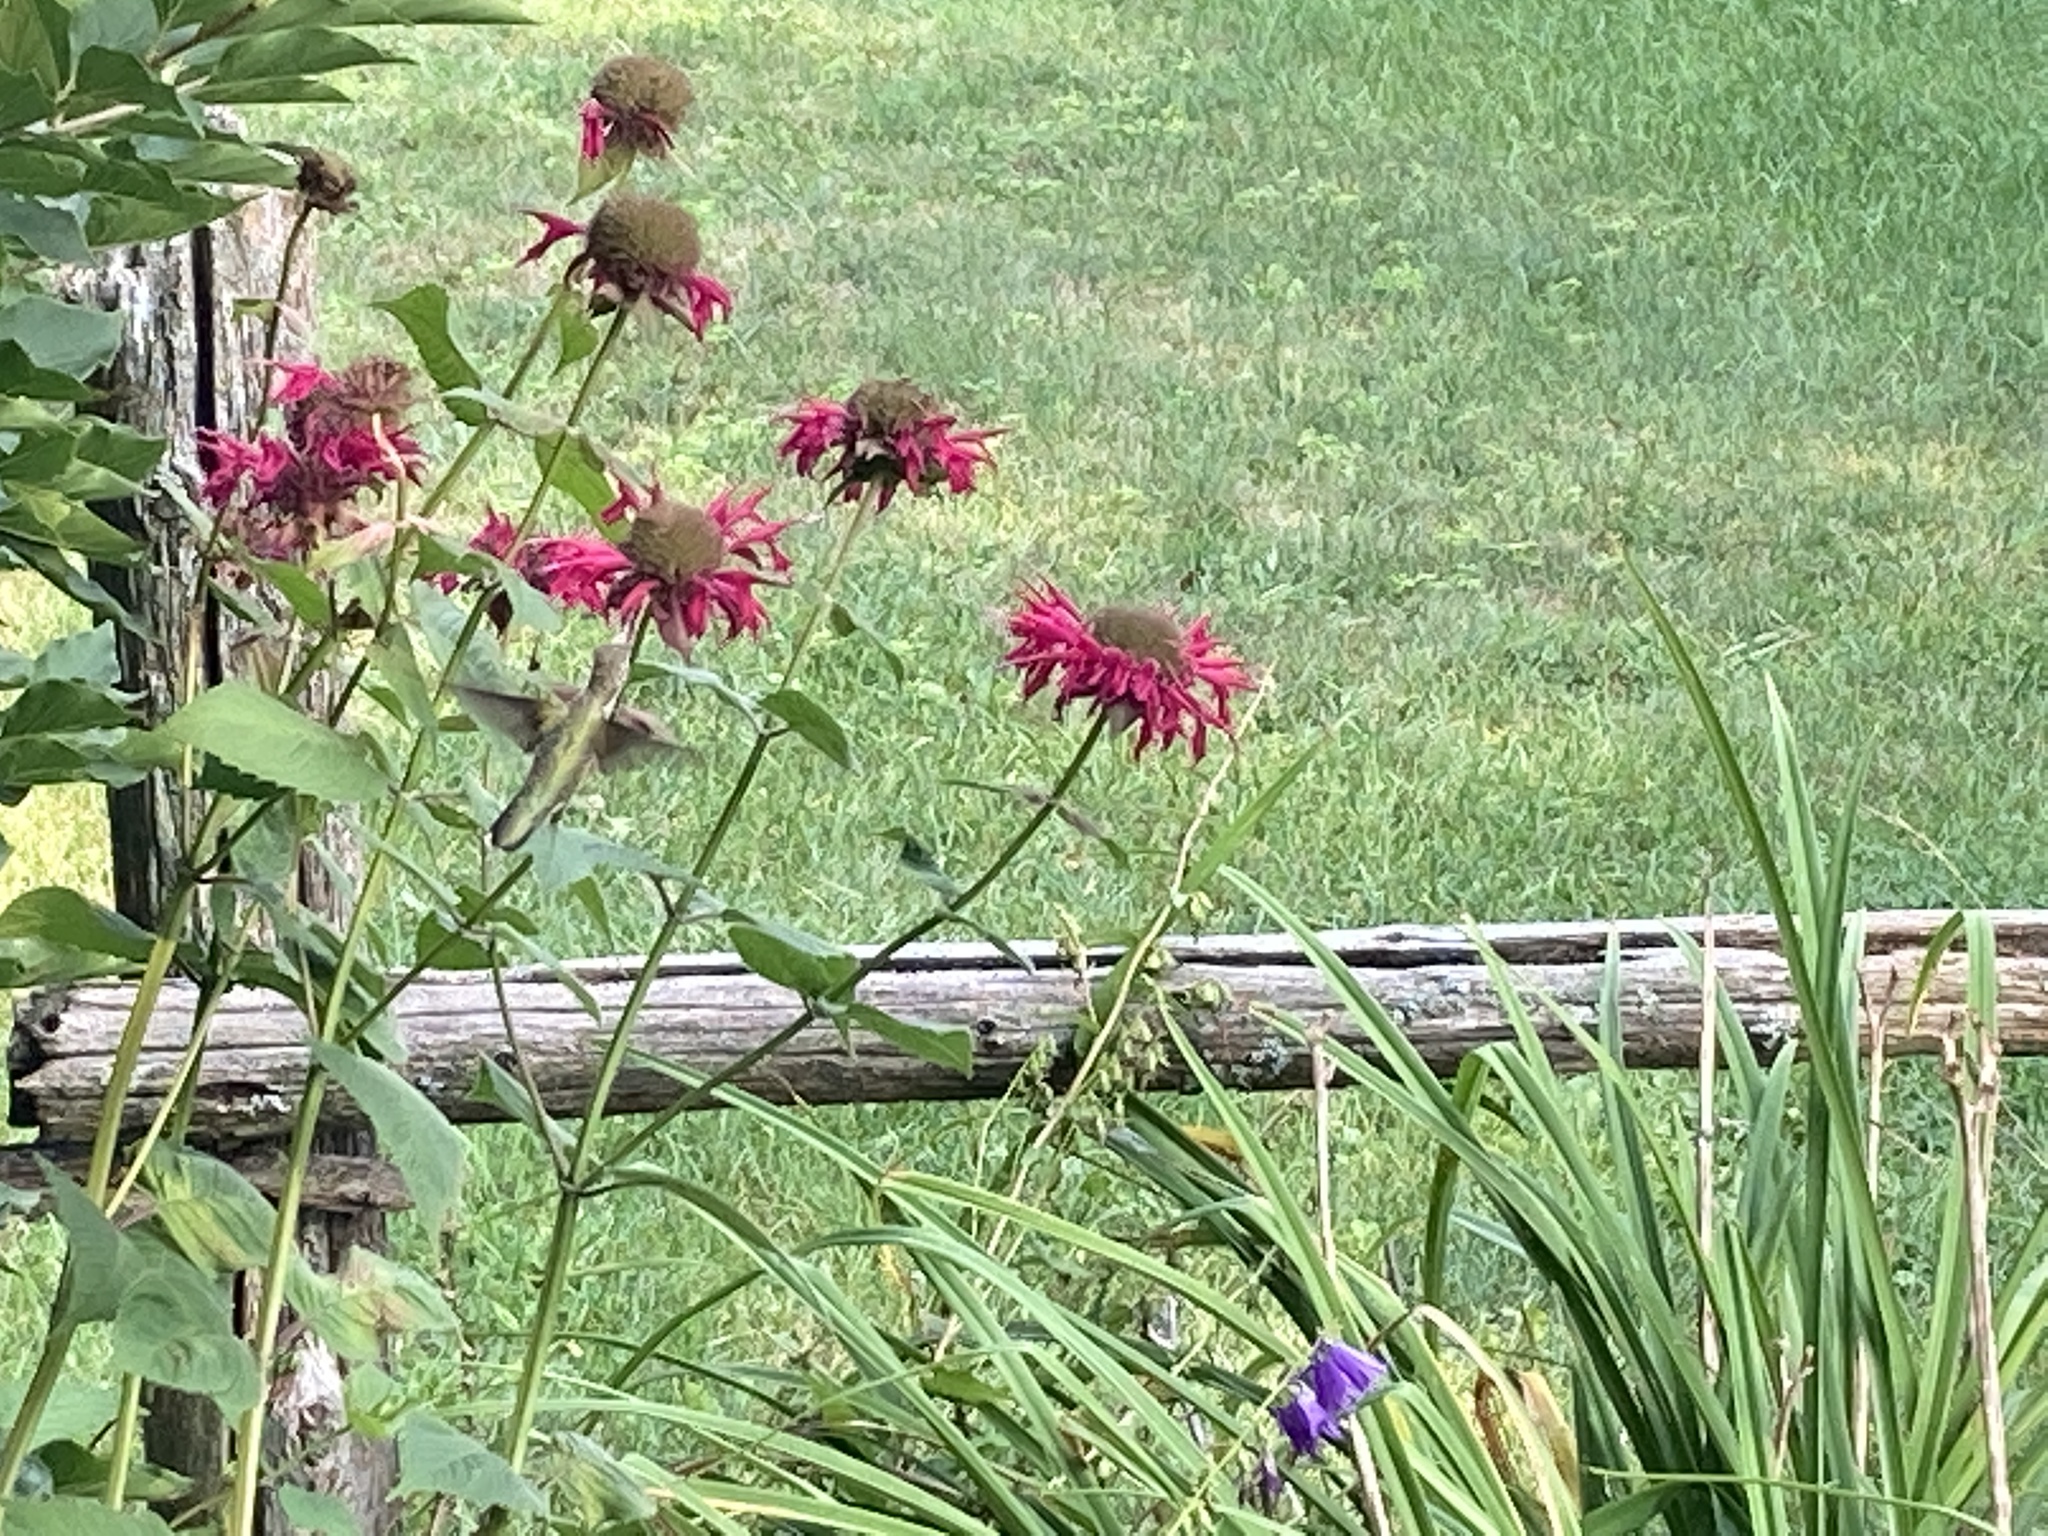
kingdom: Animalia
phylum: Chordata
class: Aves
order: Apodiformes
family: Trochilidae
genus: Archilochus
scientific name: Archilochus colubris
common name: Ruby-throated hummingbird
